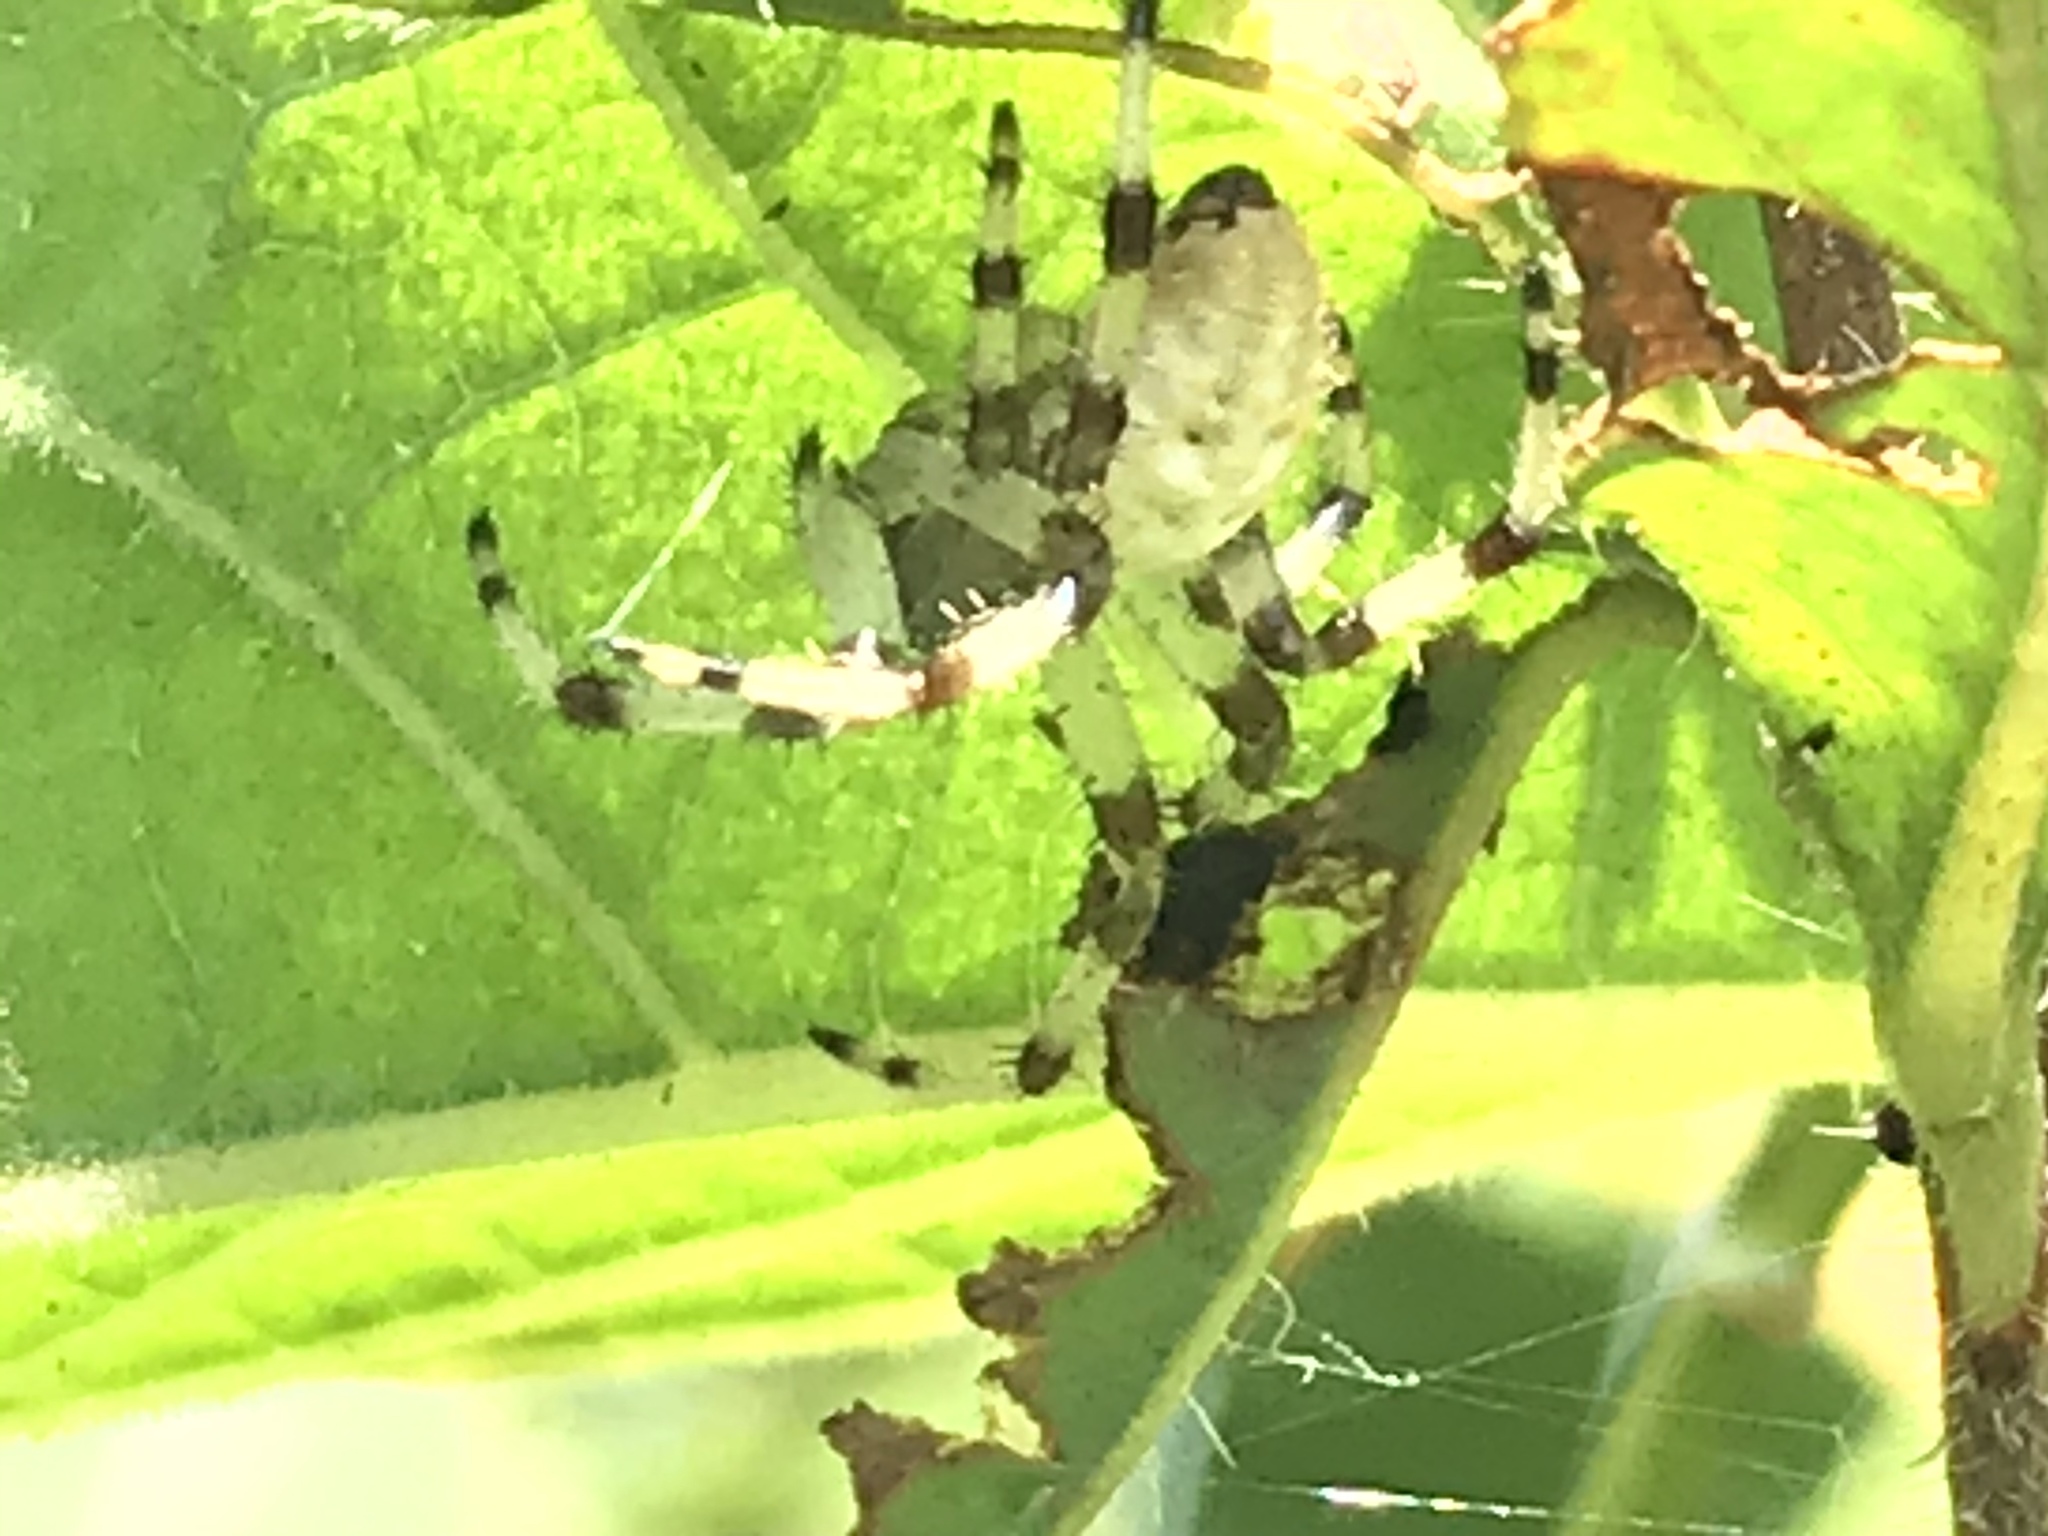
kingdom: Animalia
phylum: Arthropoda
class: Arachnida
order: Araneae
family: Araneidae
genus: Araneus
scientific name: Araneus trifolium
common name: Shamrock orbweaver
